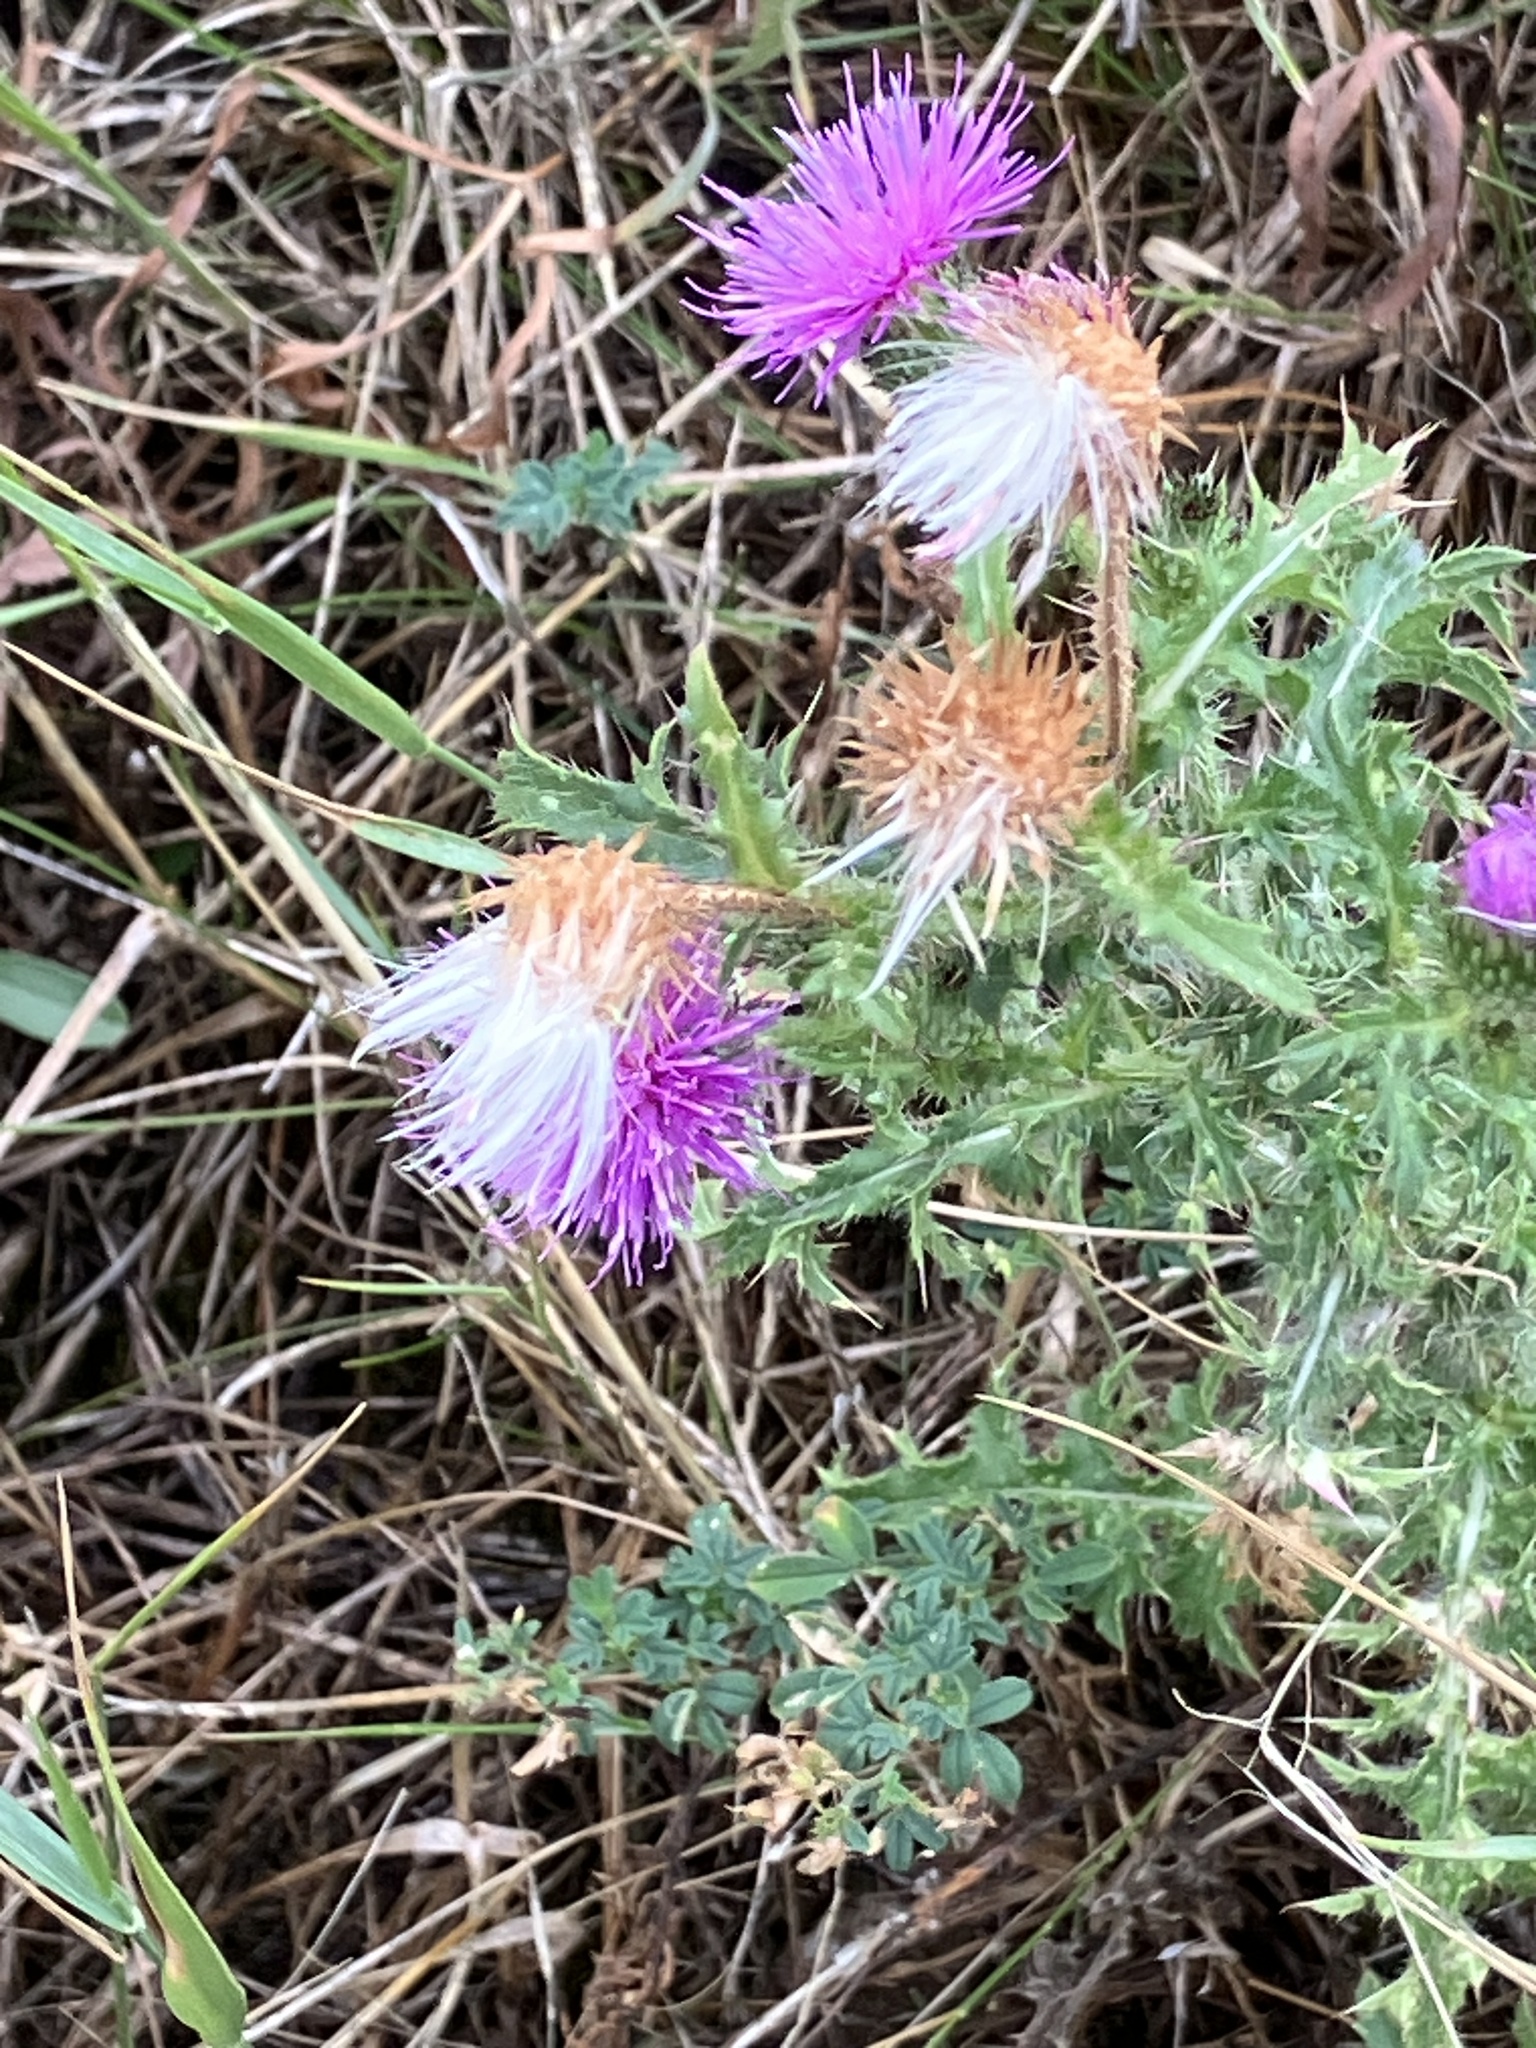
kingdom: Plantae
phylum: Tracheophyta
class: Magnoliopsida
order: Asterales
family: Asteraceae
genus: Carduus
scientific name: Carduus acanthoides
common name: Plumeless thistle
